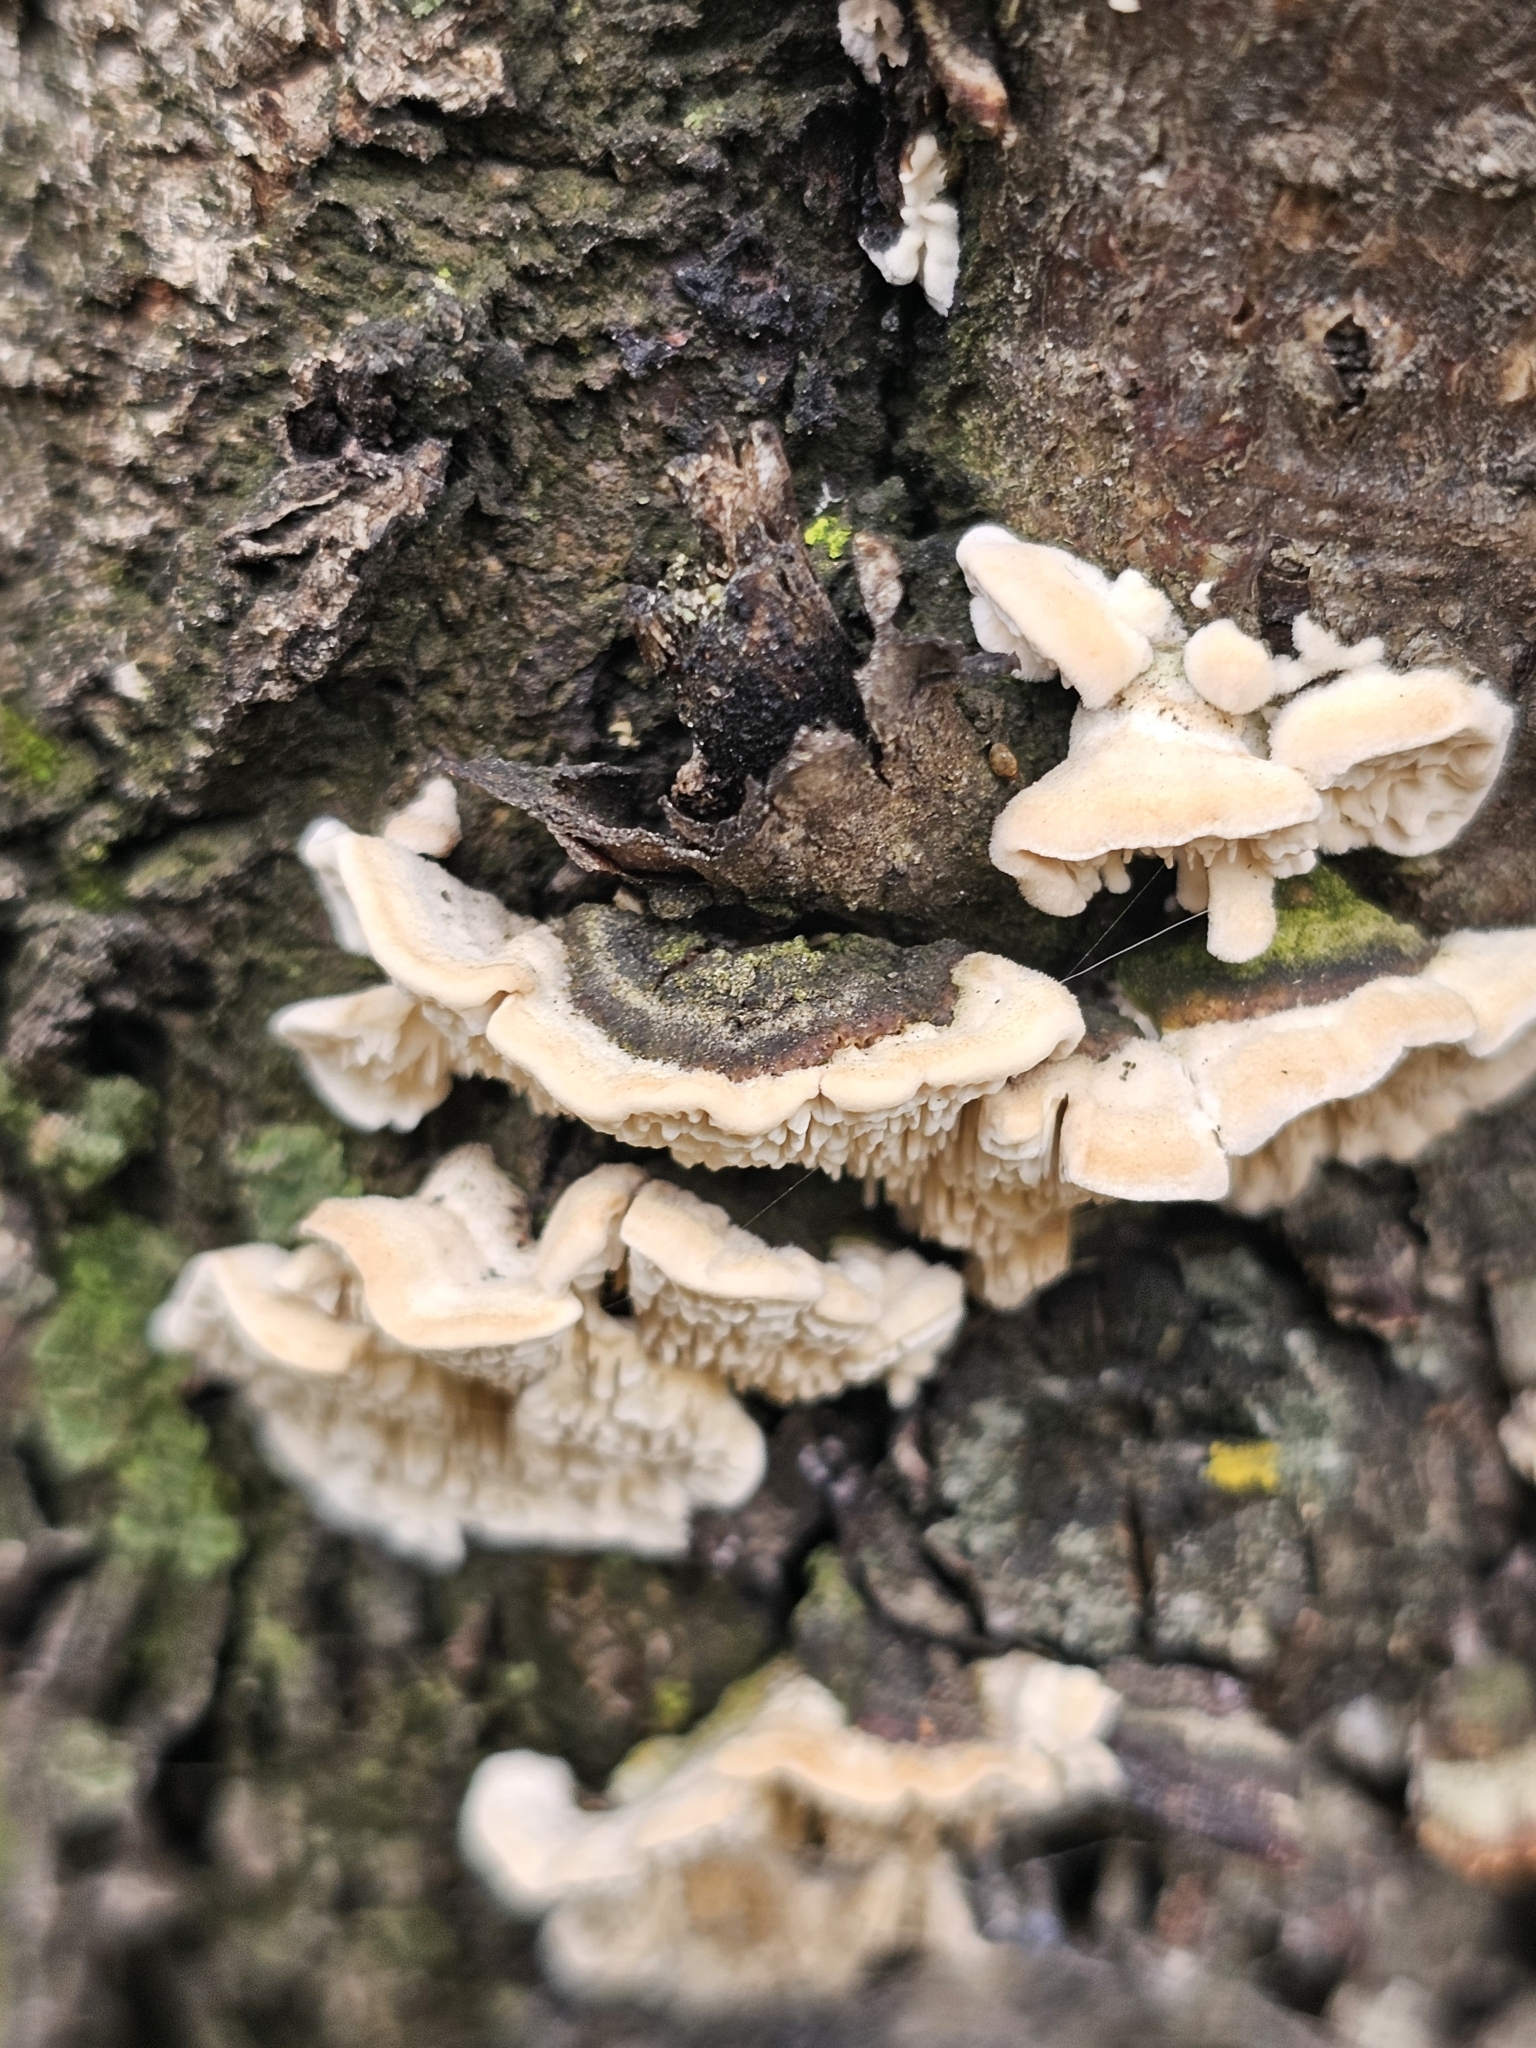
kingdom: Fungi
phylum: Basidiomycota
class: Agaricomycetes
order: Polyporales
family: Irpicaceae
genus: Irpex
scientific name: Irpex lacteus
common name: Milk-white toothed polypore
